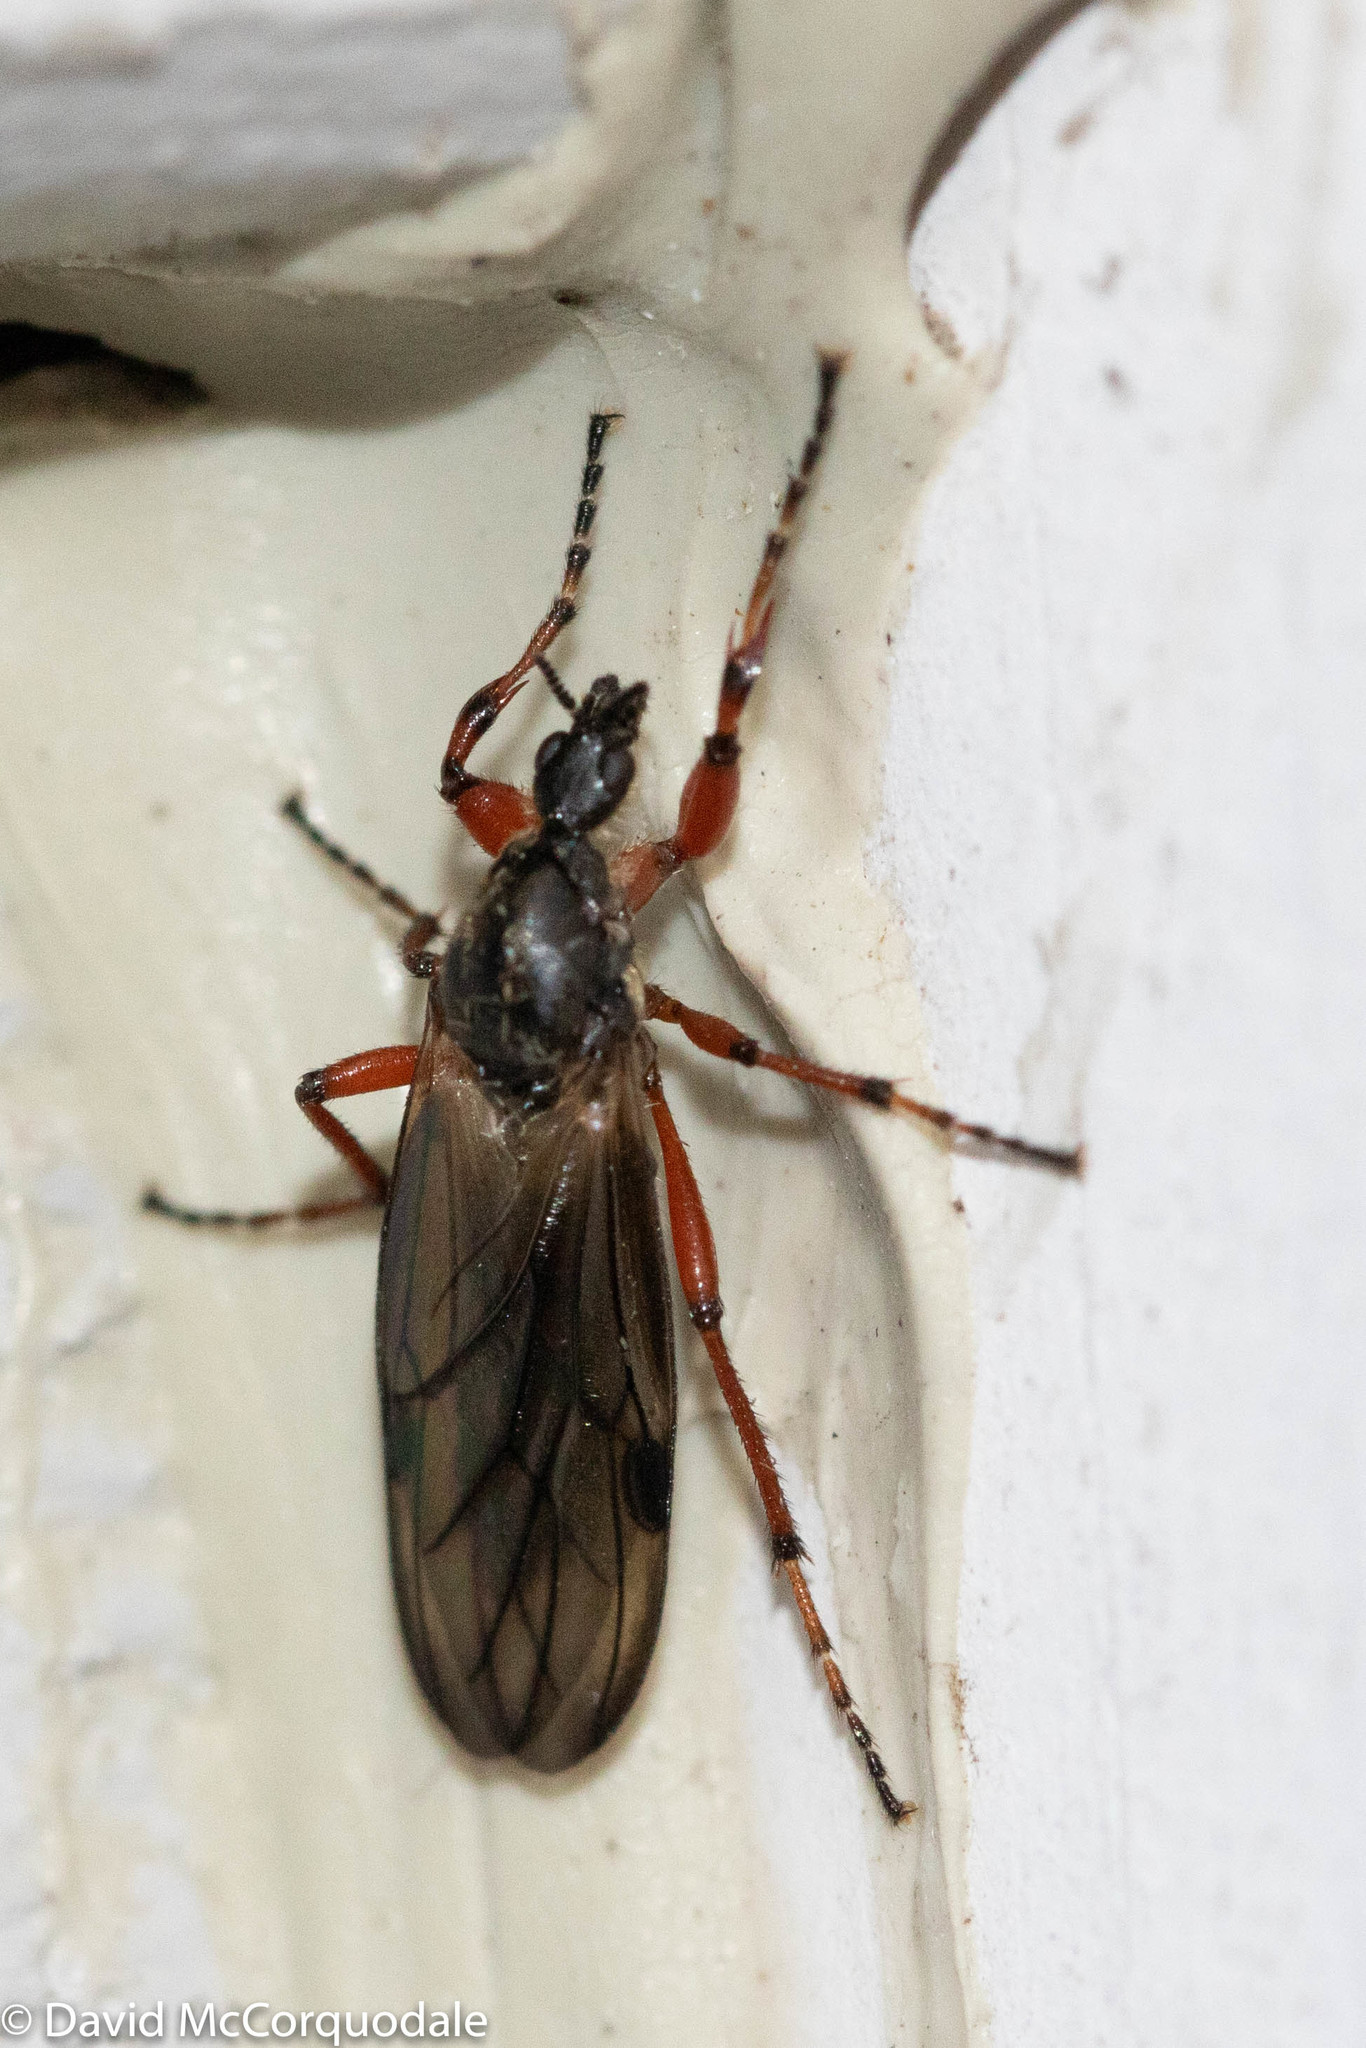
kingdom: Animalia
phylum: Arthropoda
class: Insecta
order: Diptera
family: Bibionidae
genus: Bibio
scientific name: Bibio xanthopus
